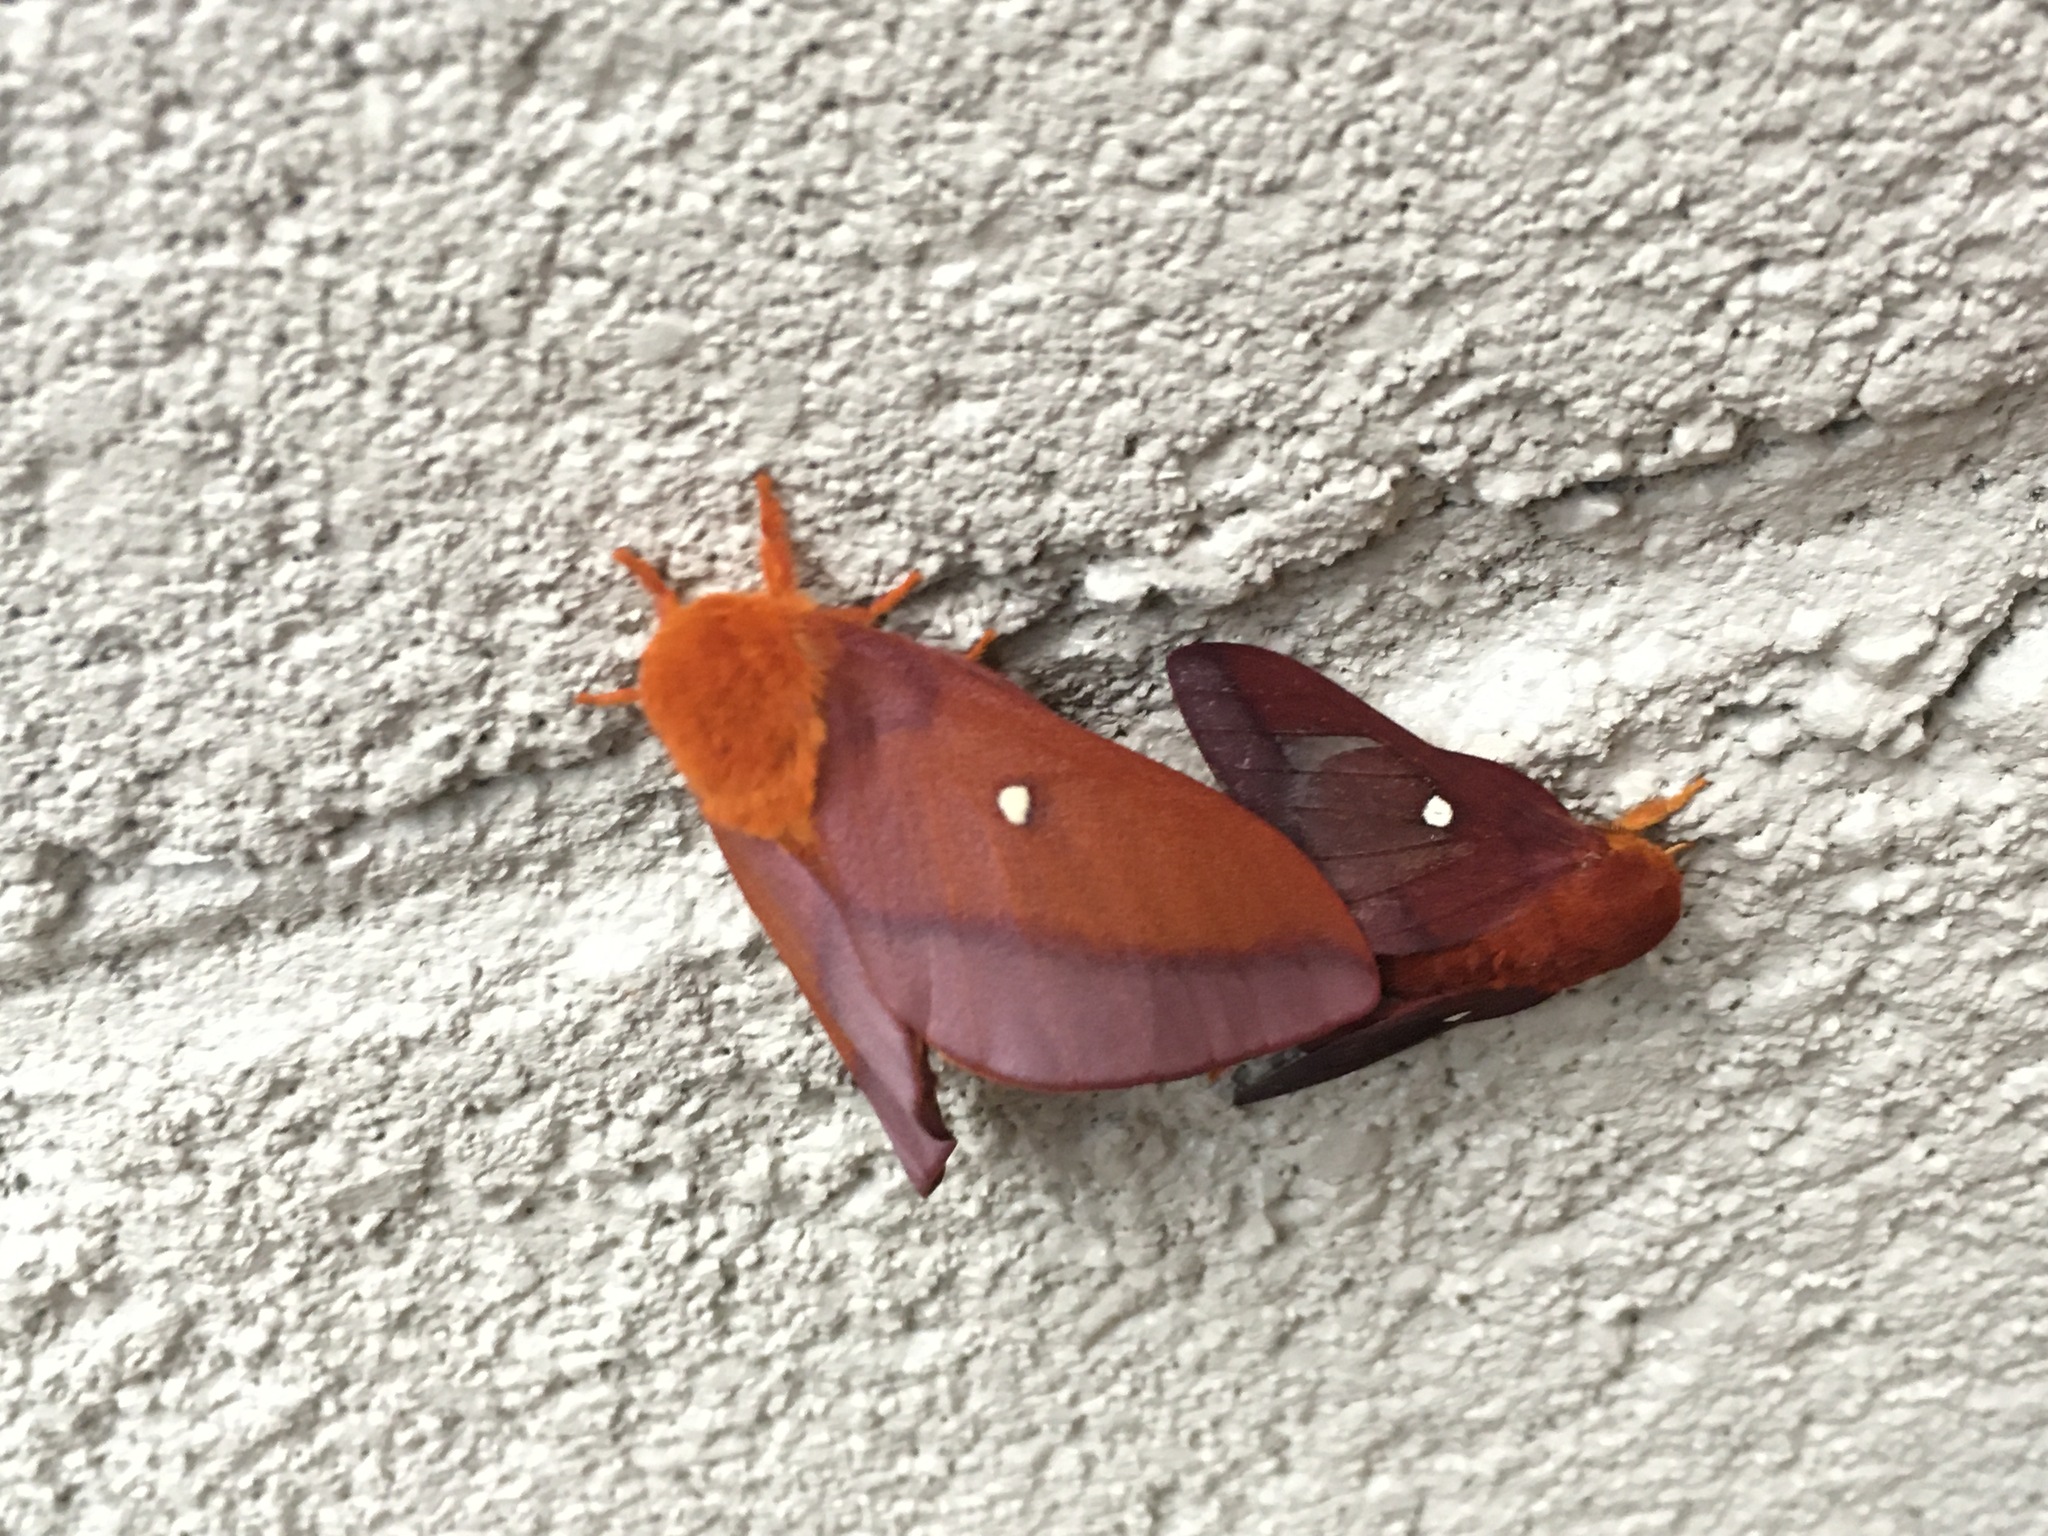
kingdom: Animalia
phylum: Arthropoda
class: Insecta
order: Lepidoptera
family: Saturniidae
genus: Anisota
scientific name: Anisota virginiensis
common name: Pink striped oakworm moth
